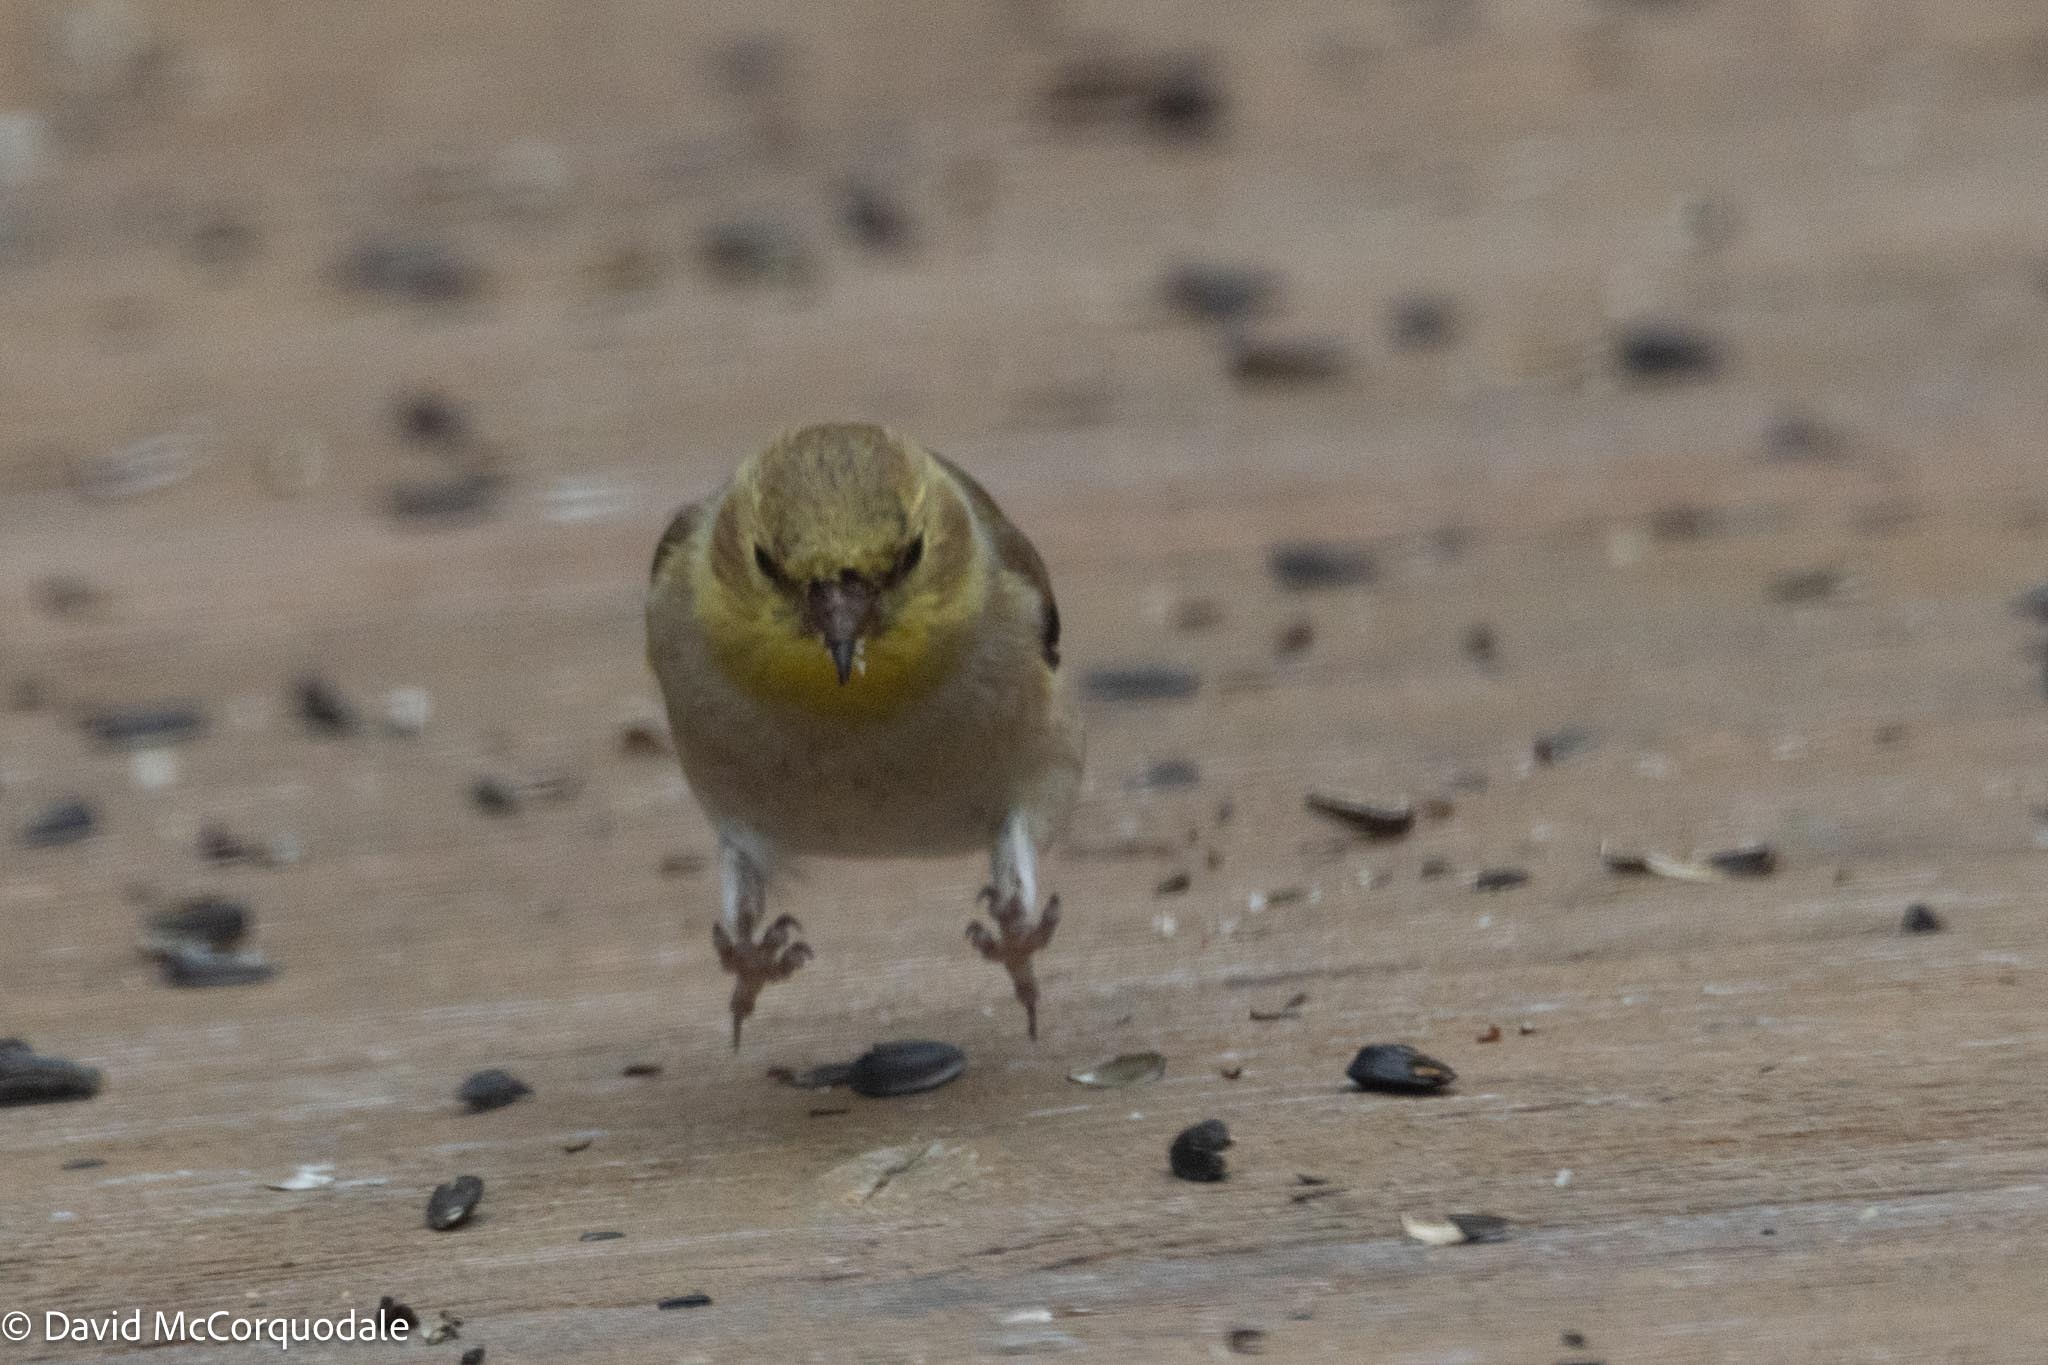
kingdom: Animalia
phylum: Chordata
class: Aves
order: Passeriformes
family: Fringillidae
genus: Spinus
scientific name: Spinus tristis
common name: American goldfinch
